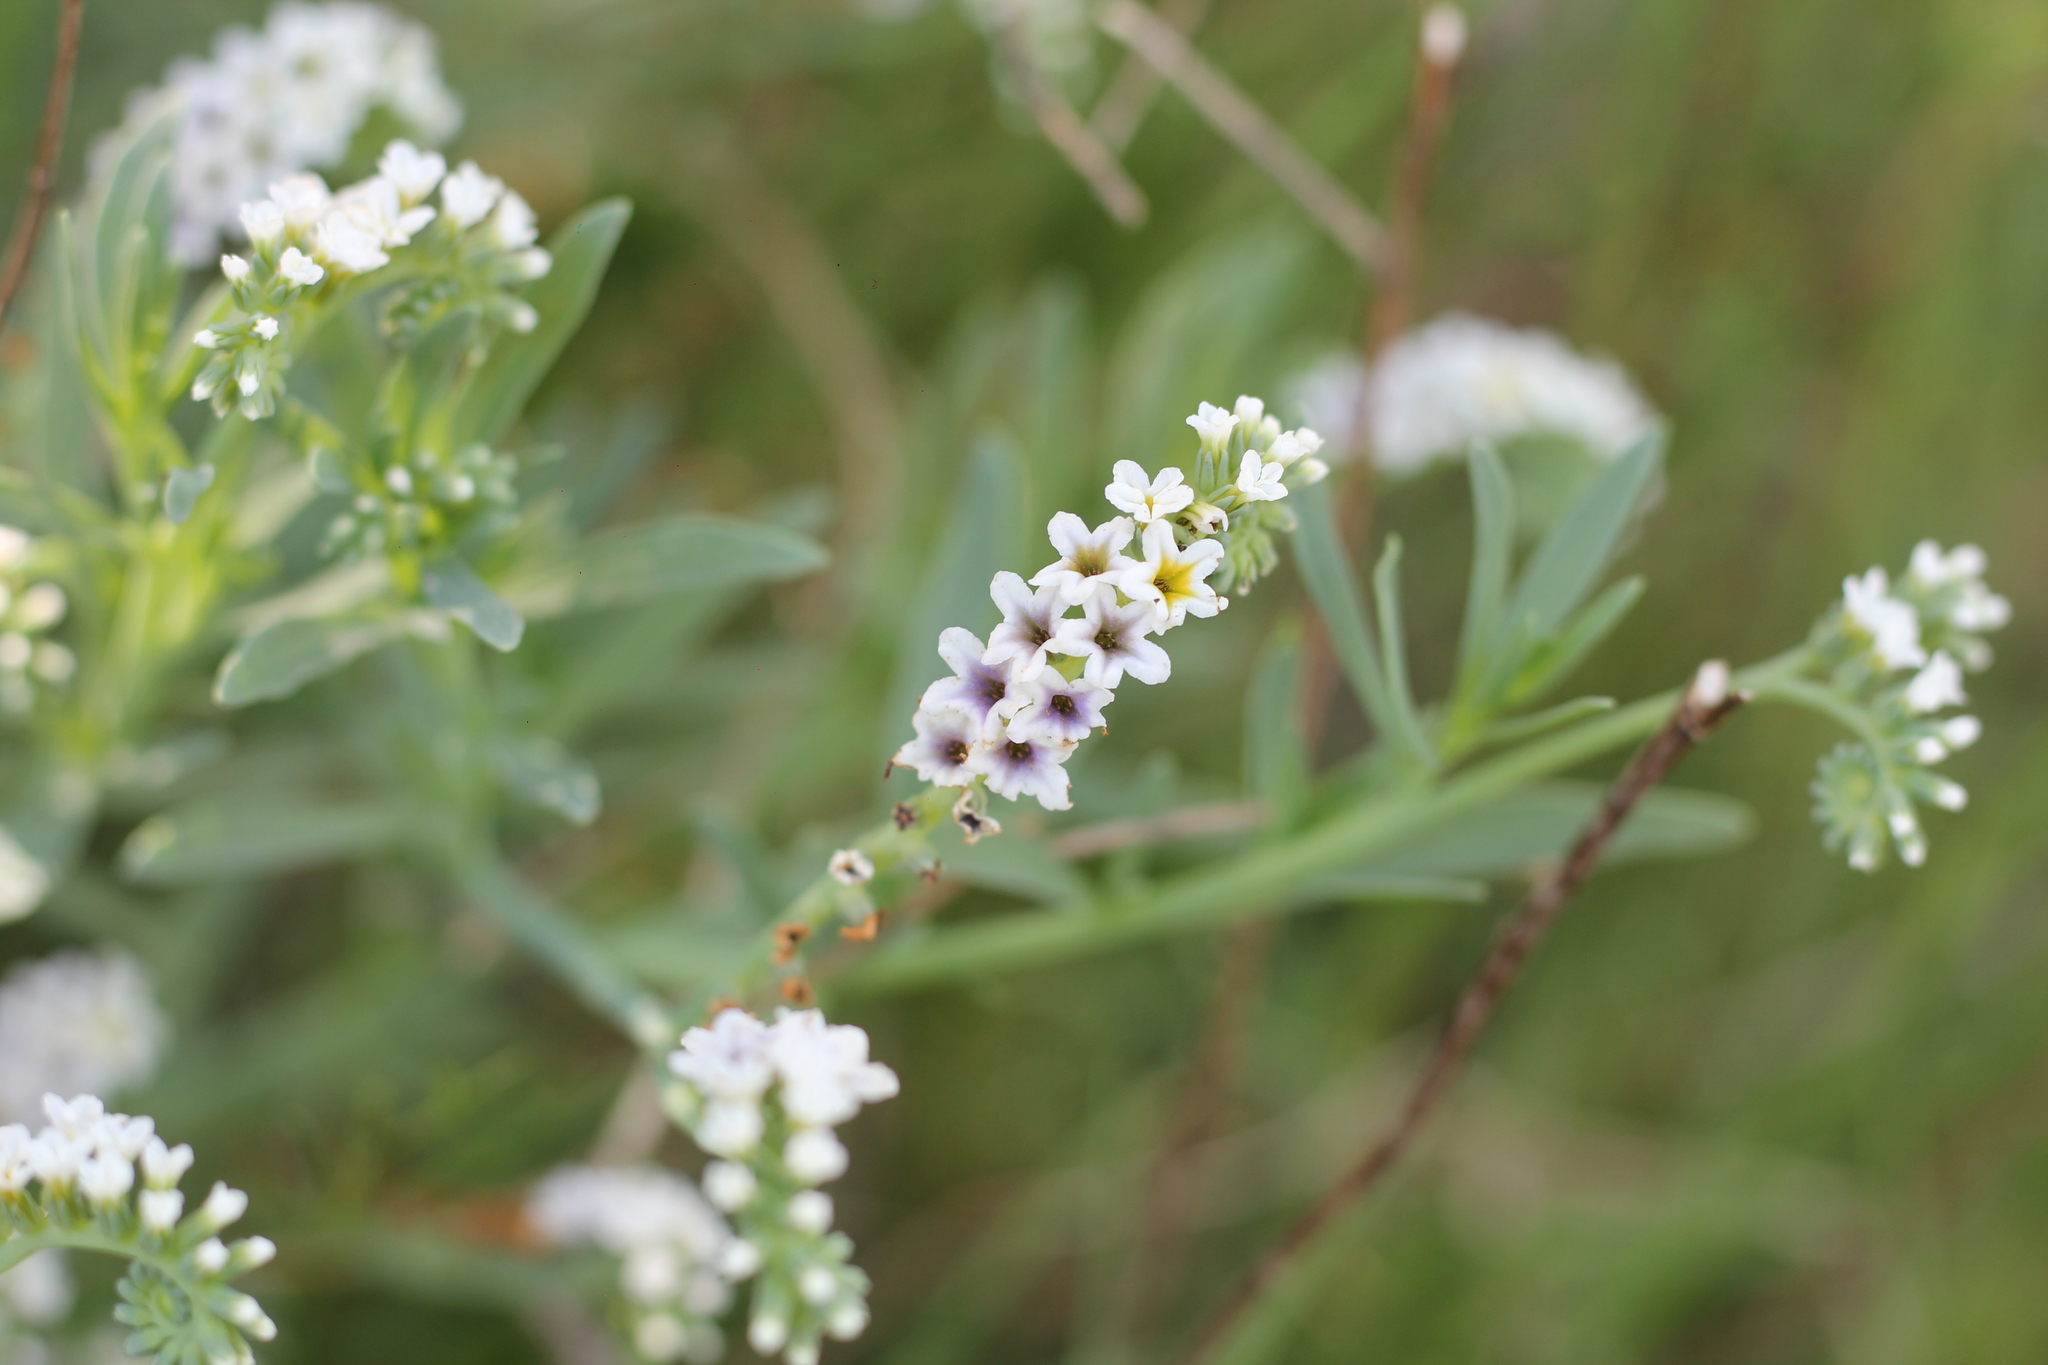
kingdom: Plantae
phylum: Tracheophyta
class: Magnoliopsida
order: Boraginales
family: Heliotropiaceae
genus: Heliotropium
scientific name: Heliotropium curassavicum
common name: Seaside heliotrope
